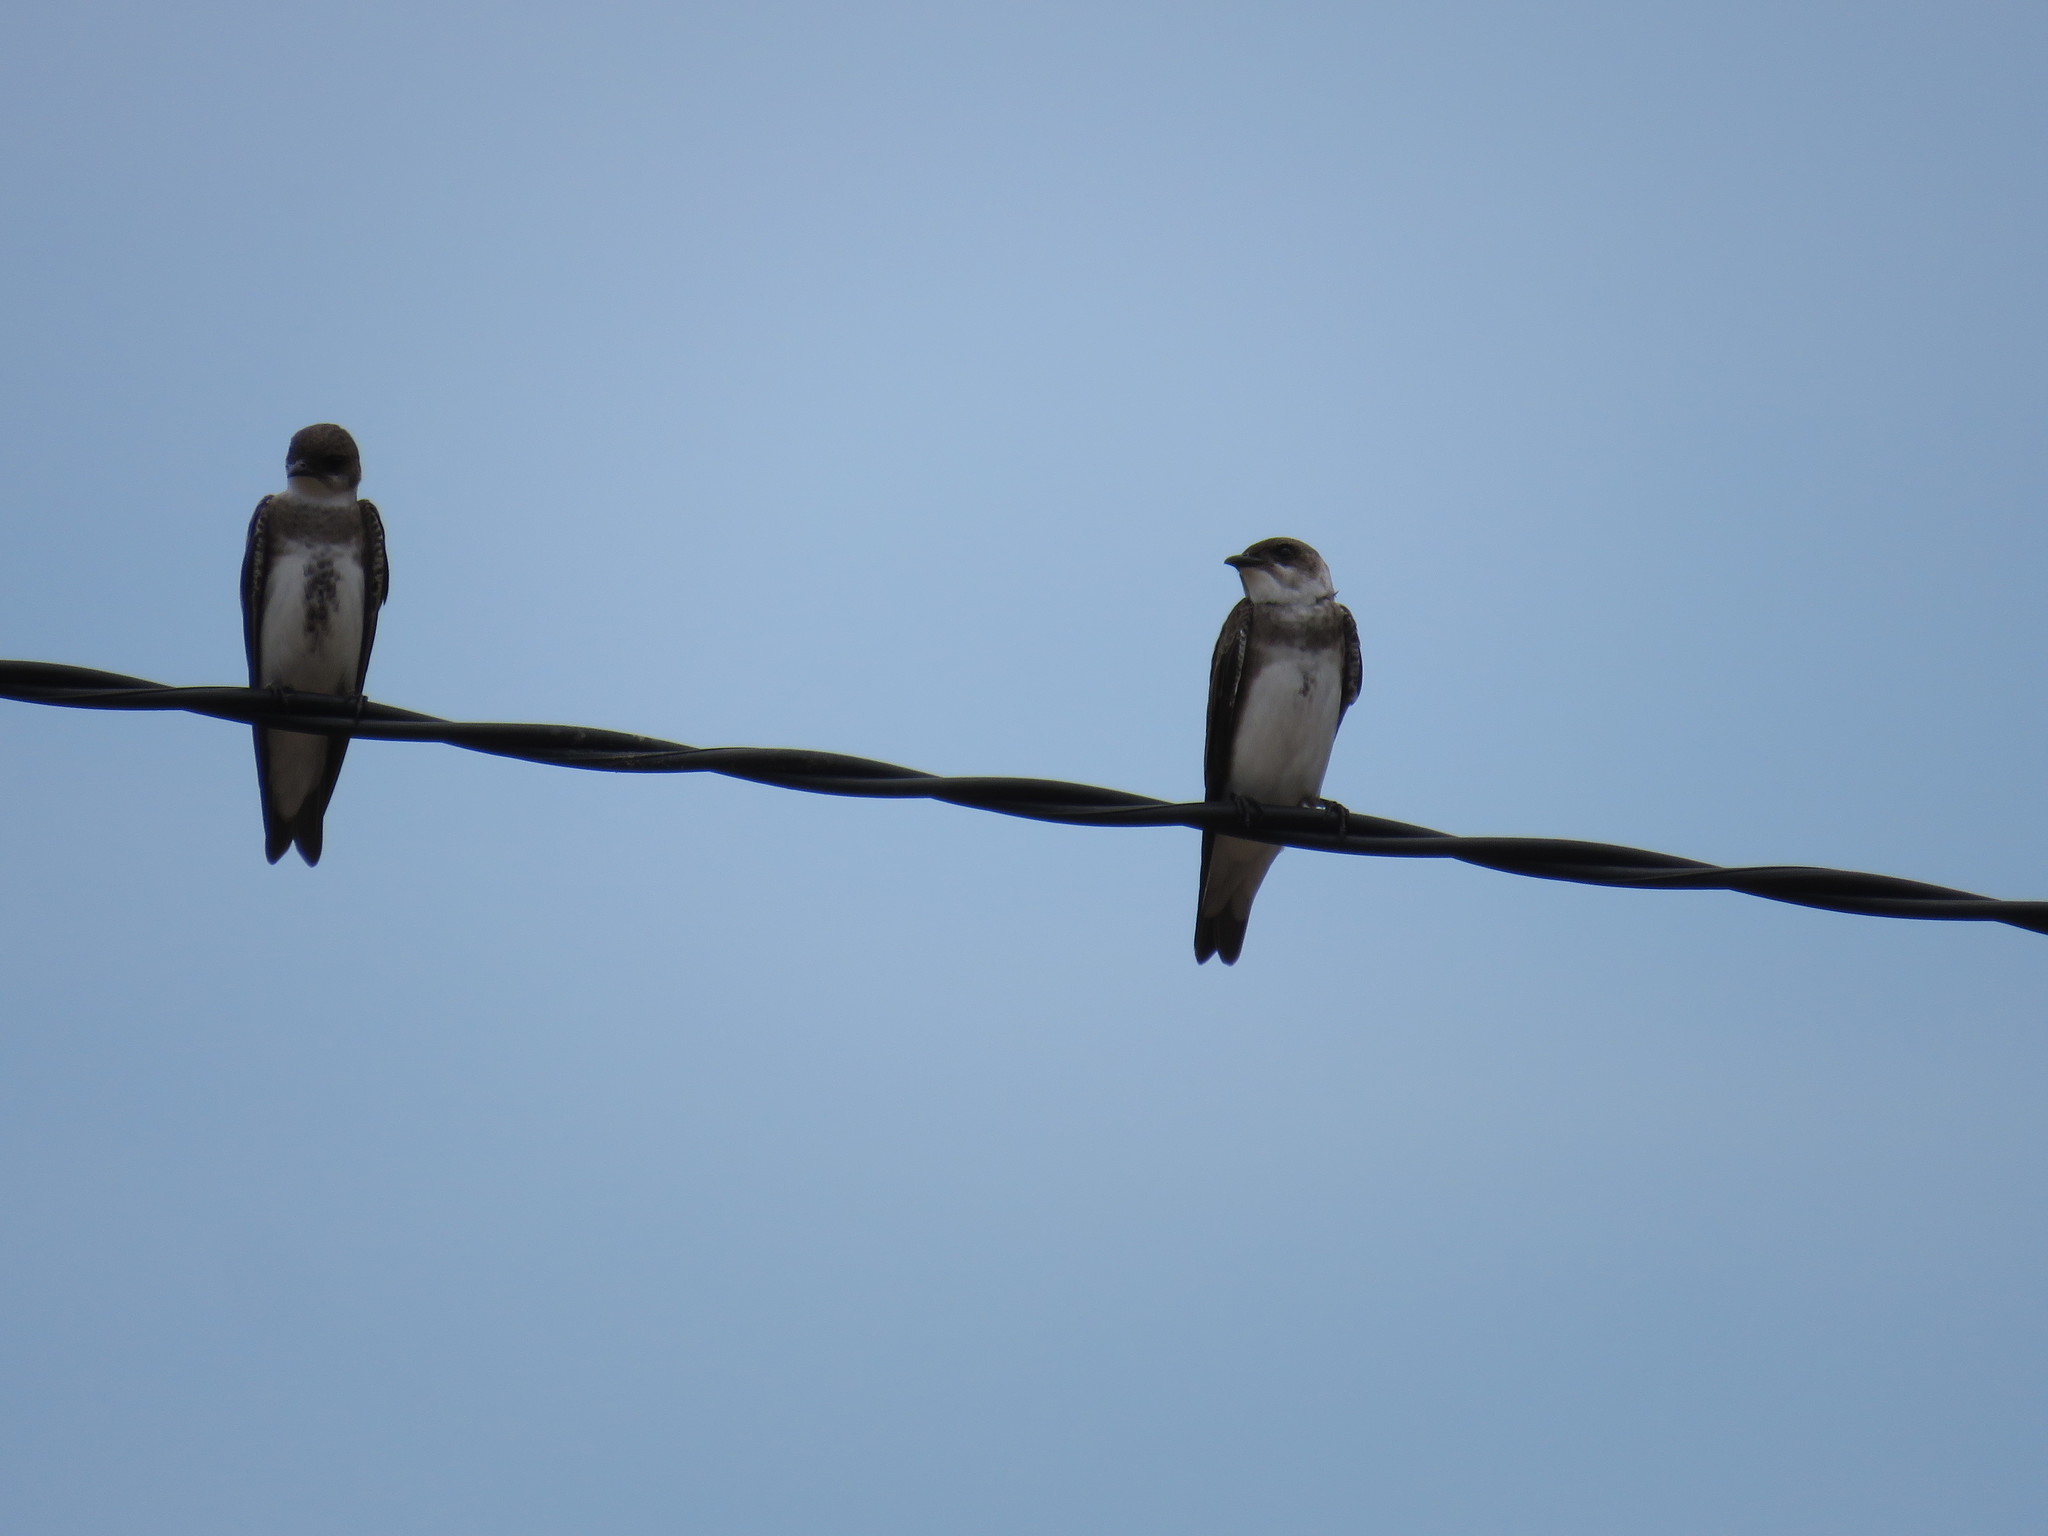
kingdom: Animalia
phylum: Chordata
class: Aves
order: Passeriformes
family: Hirundinidae
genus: Progne
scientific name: Progne tapera
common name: Brown-chested martin
